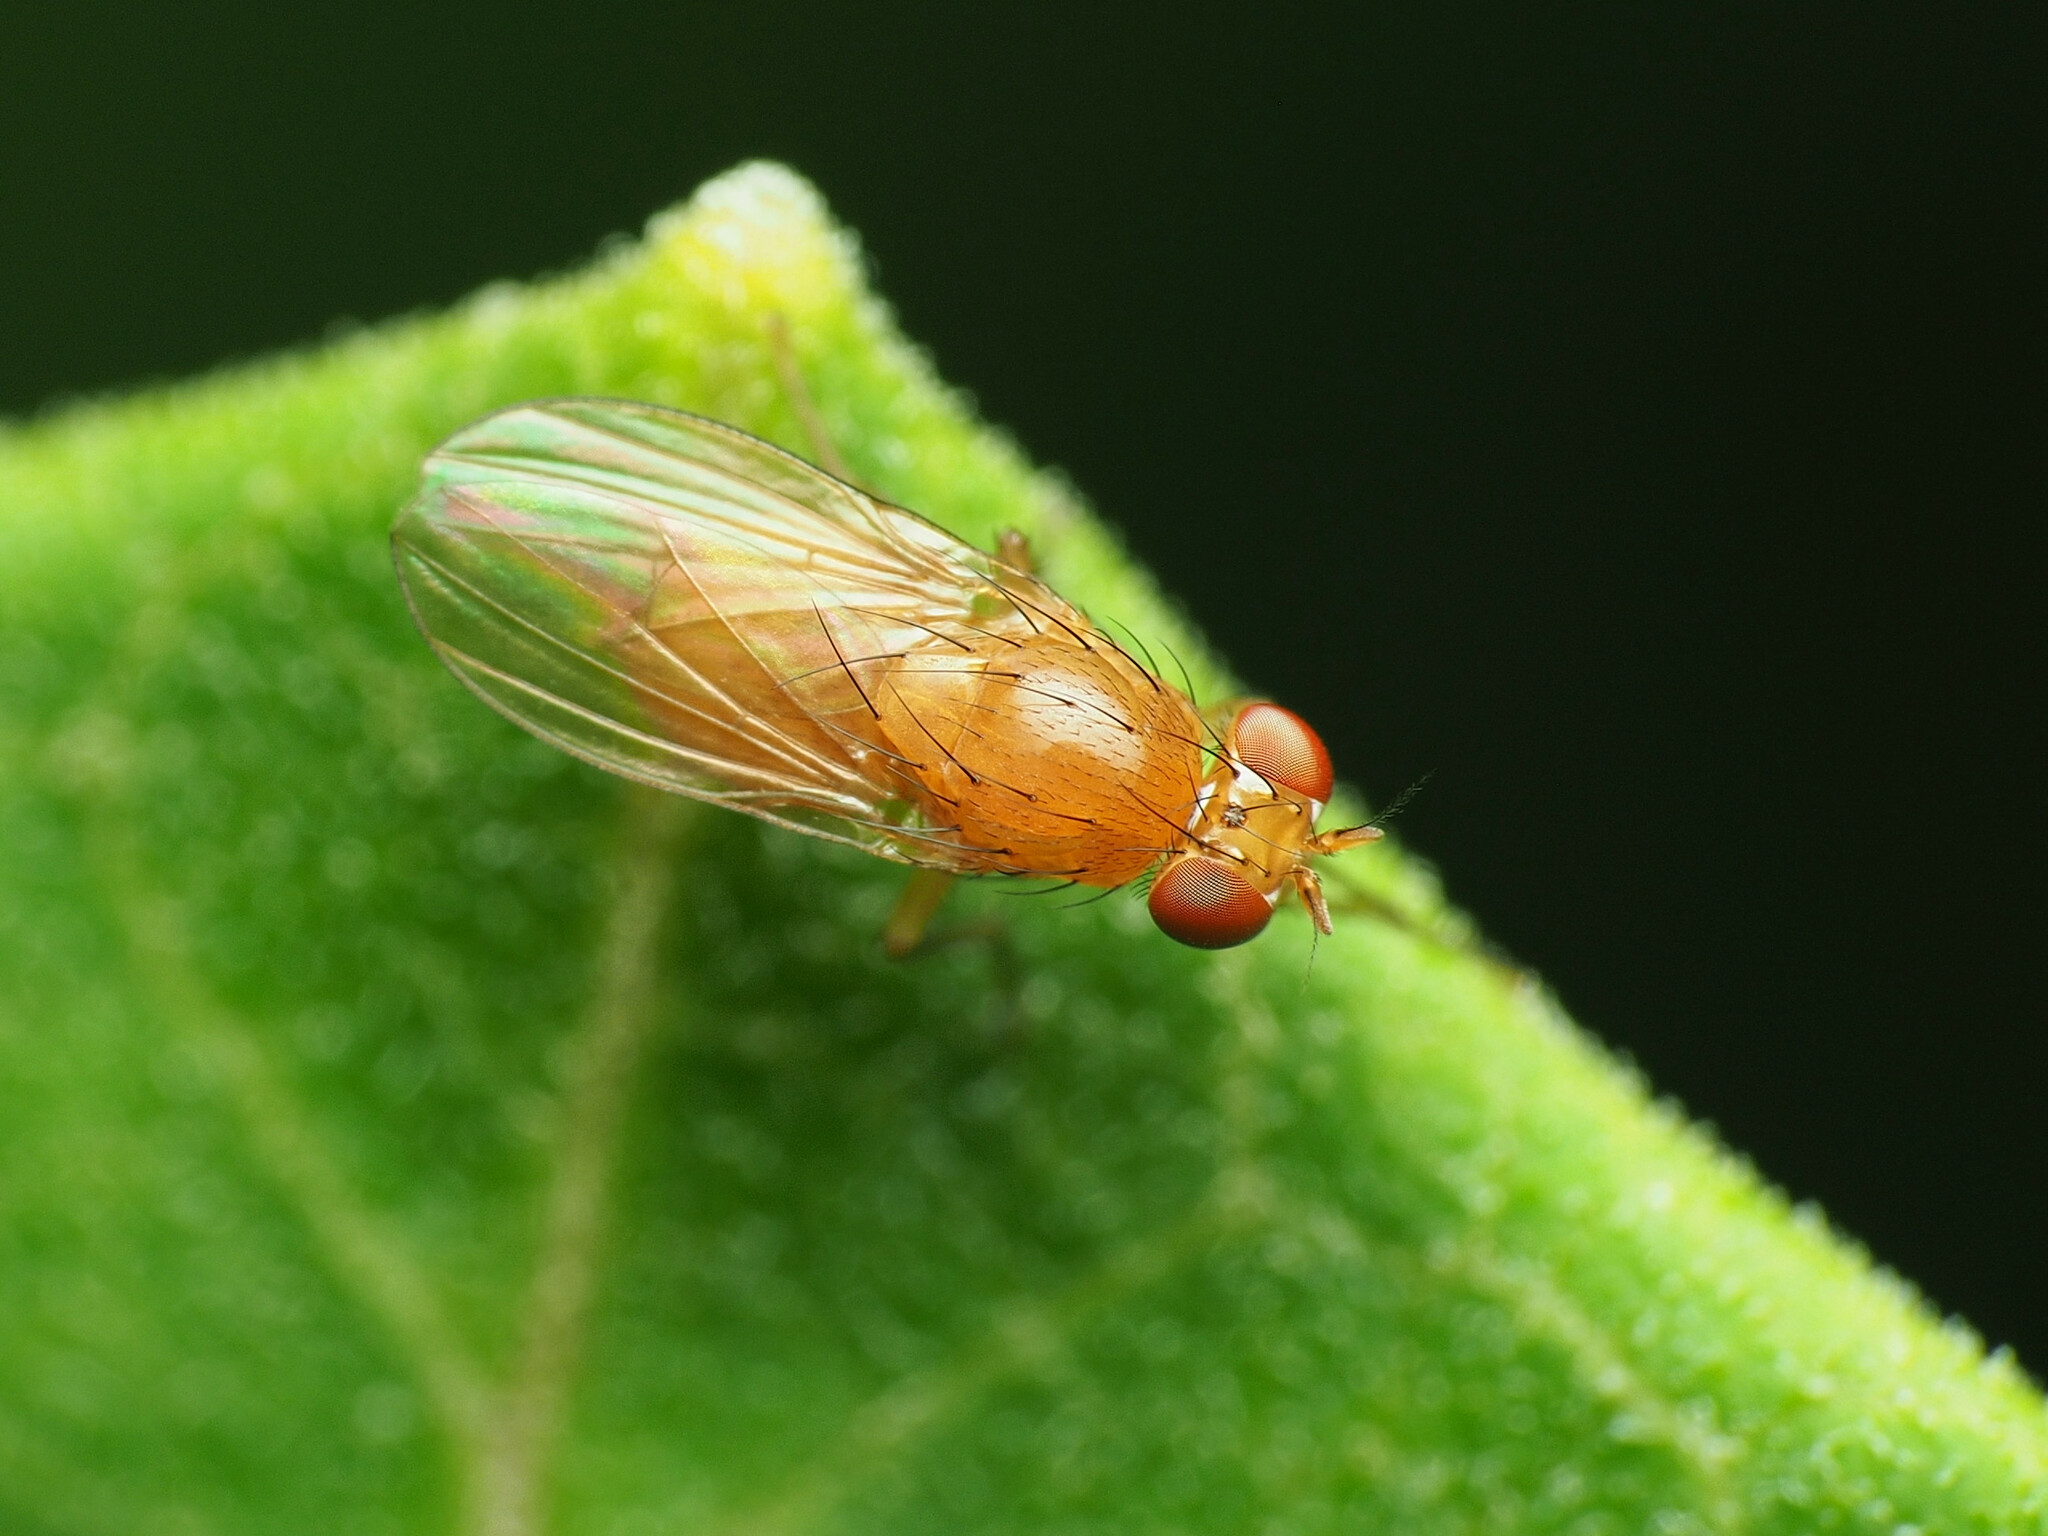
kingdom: Animalia
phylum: Arthropoda
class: Insecta
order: Diptera
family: Lauxaniidae
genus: Homoneura
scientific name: Homoneura unguiculata
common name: Beach fly
